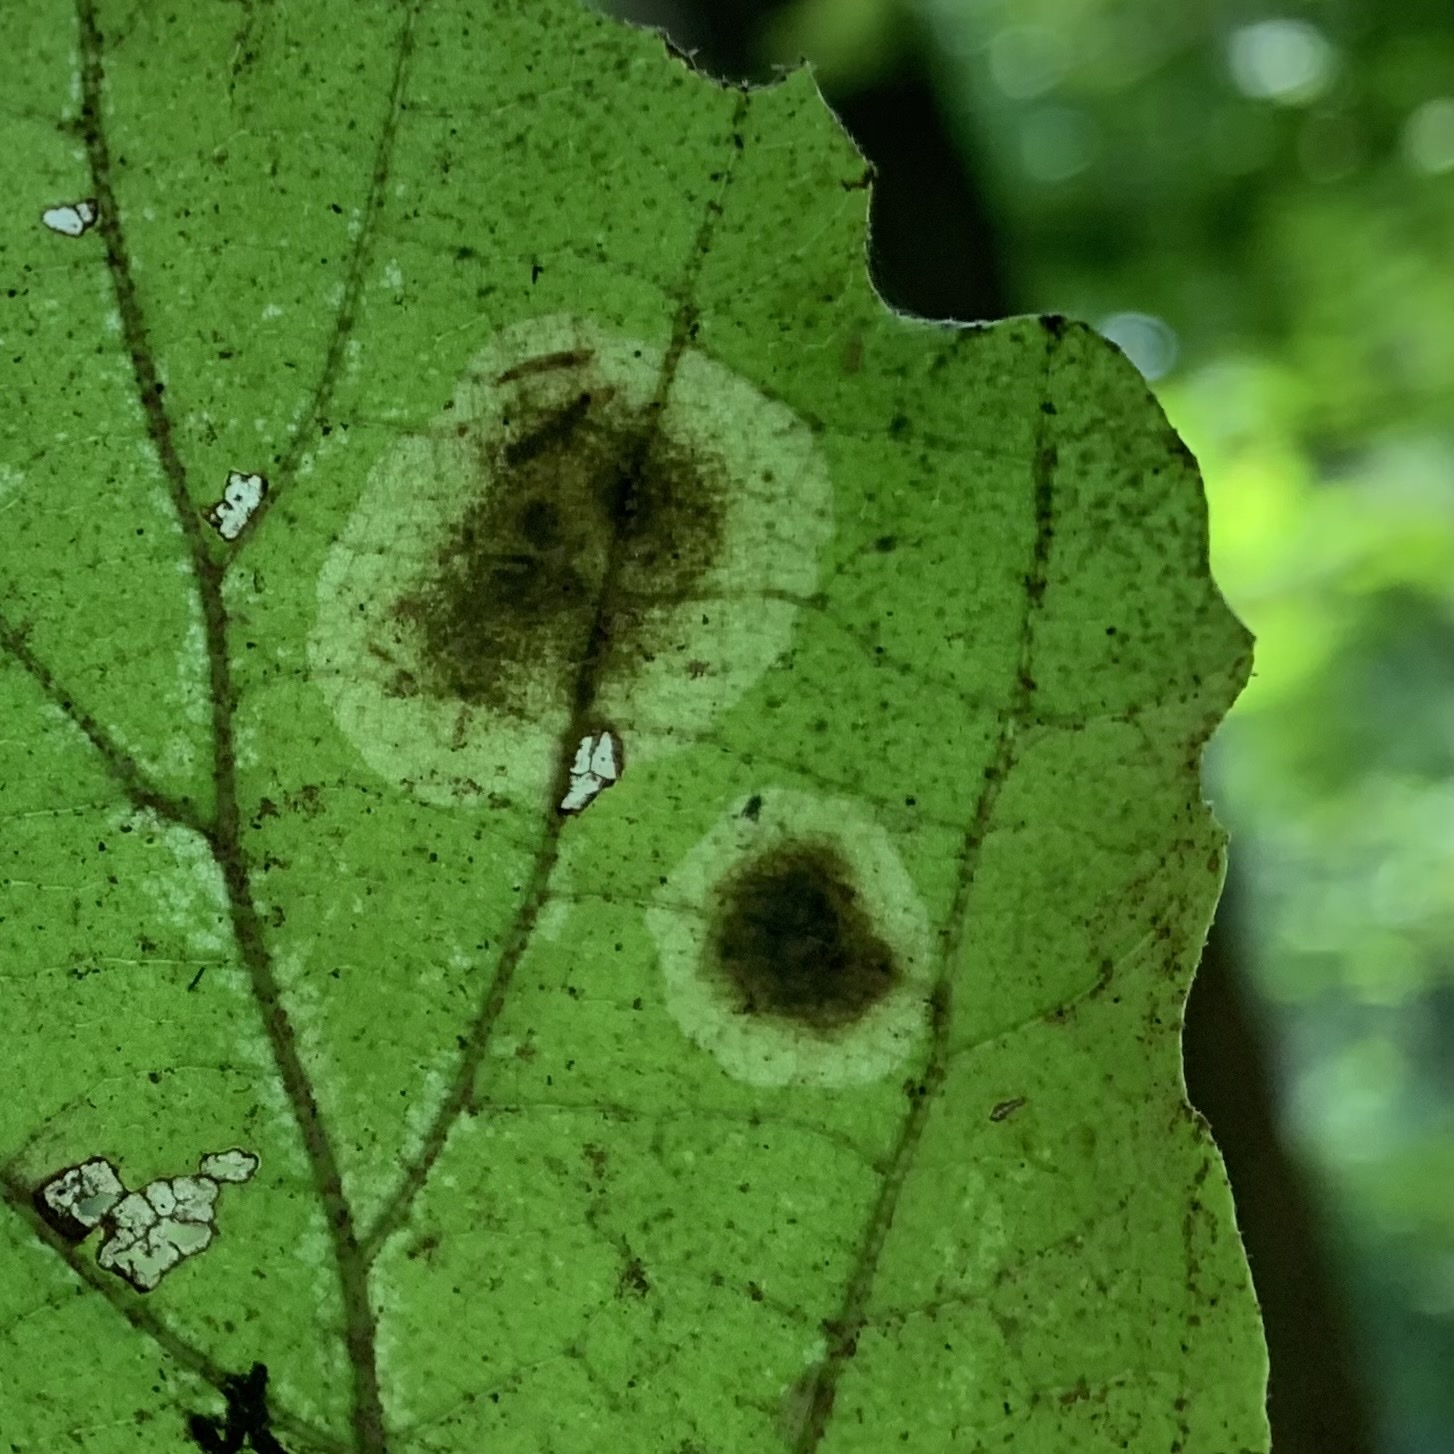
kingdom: Animalia
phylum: Arthropoda
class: Insecta
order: Lepidoptera
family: Gracillariidae
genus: Cameraria
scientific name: Cameraria hamameliella
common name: Witchhazel leafminer
